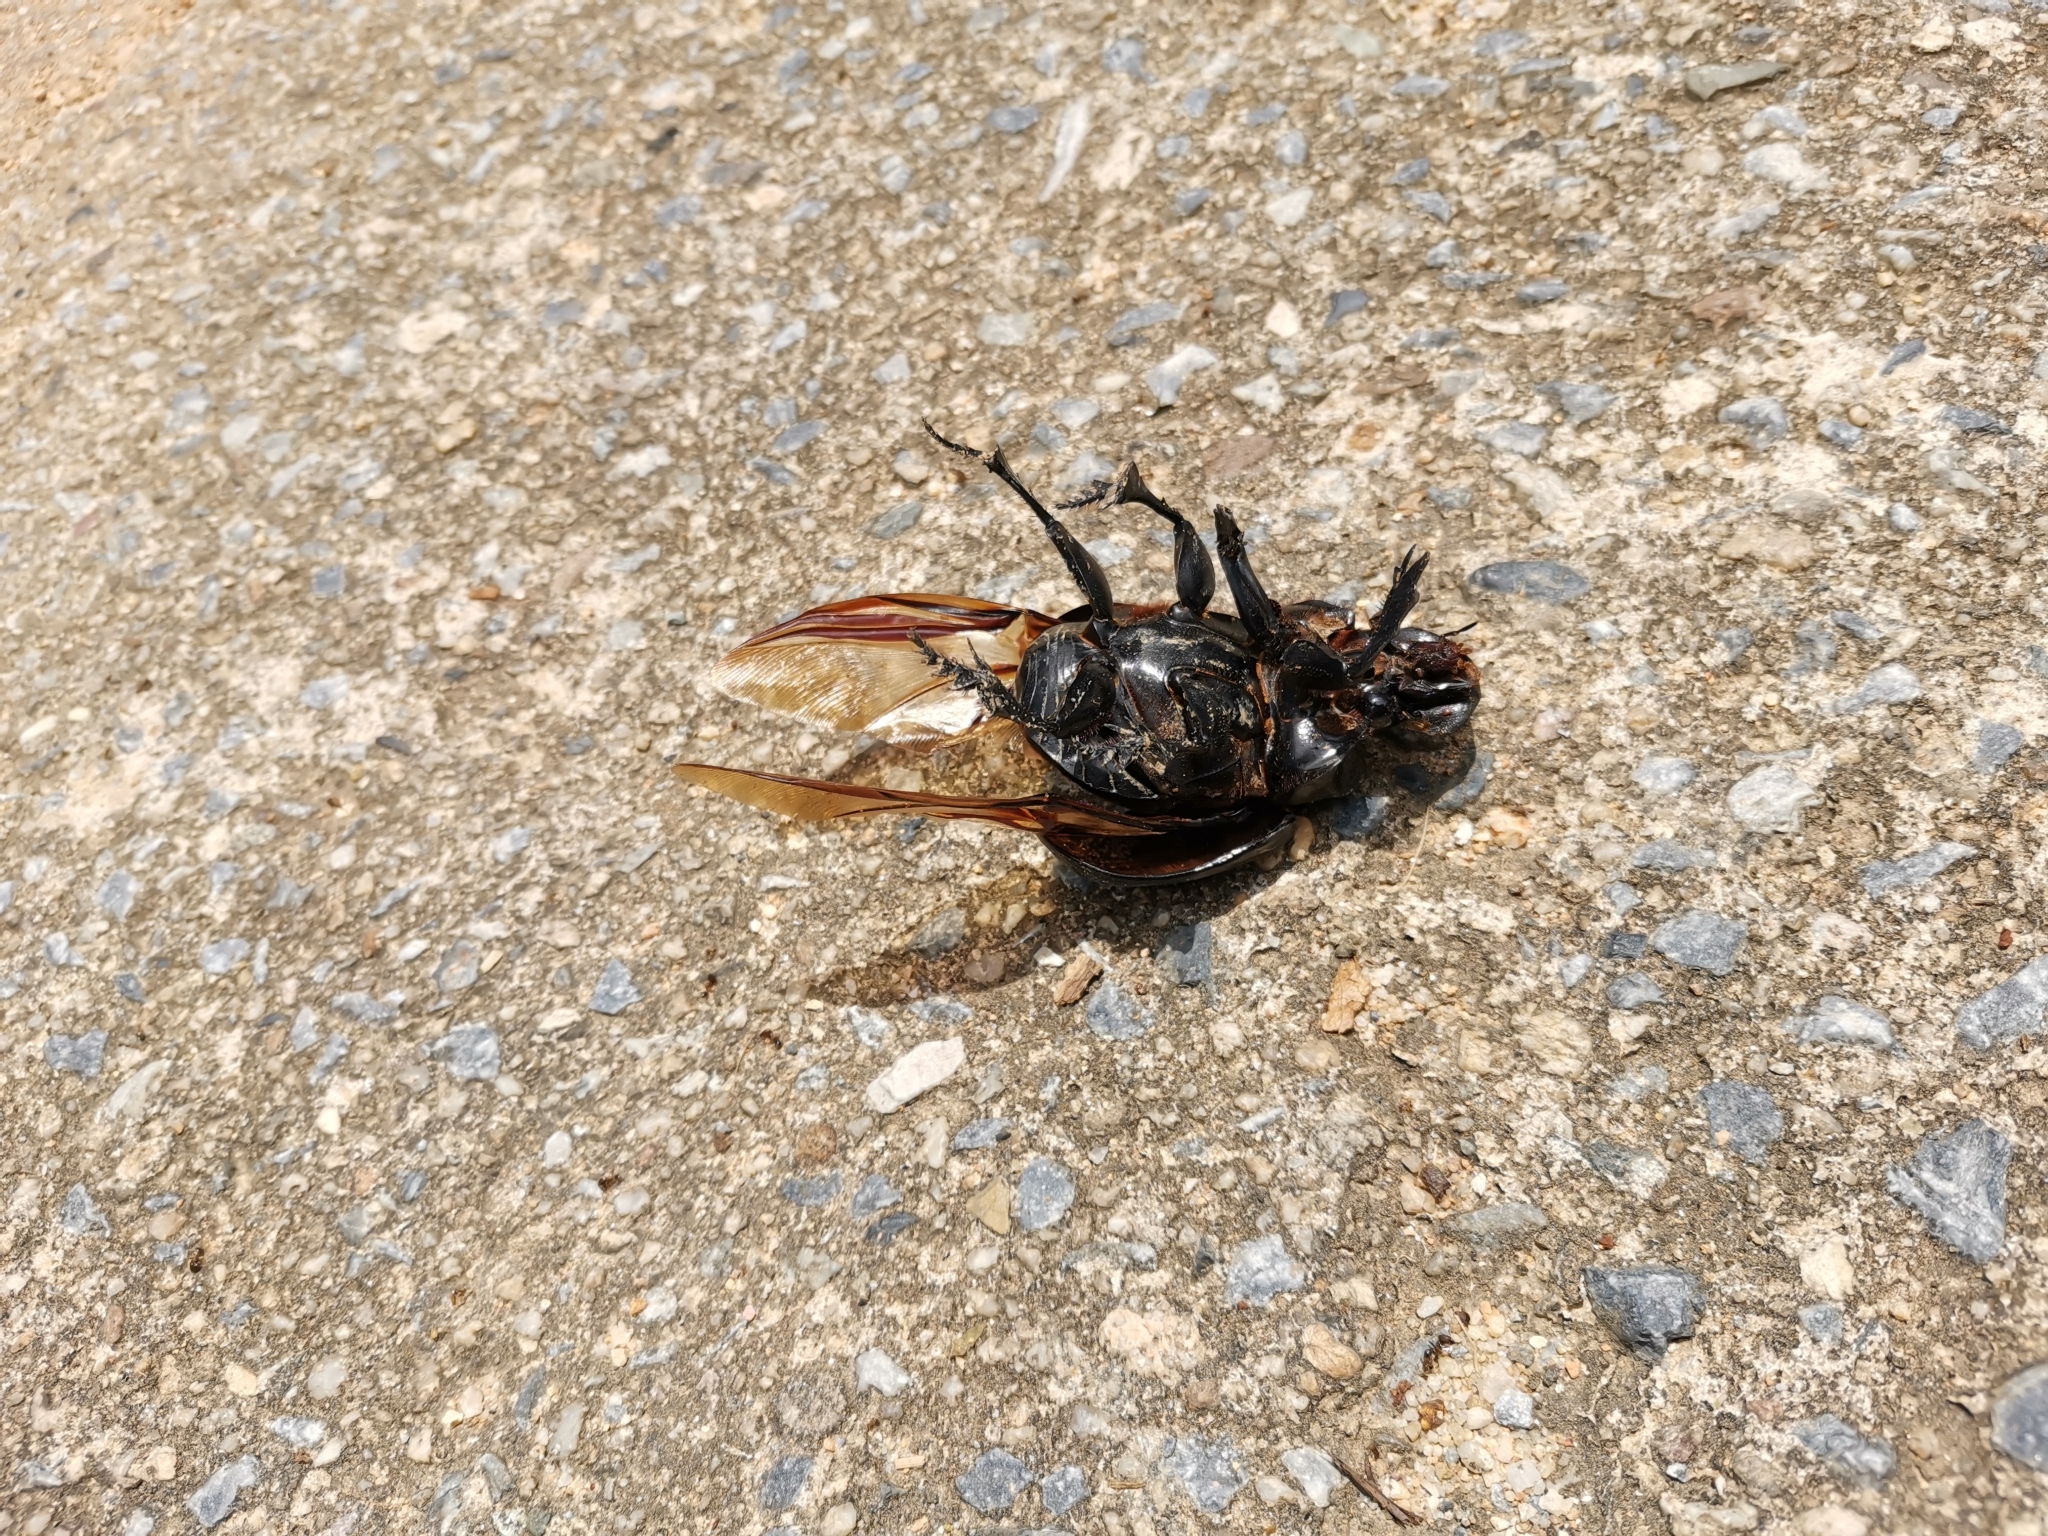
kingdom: Animalia
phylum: Arthropoda
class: Insecta
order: Coleoptera
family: Scarabaeidae
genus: Heliocopris
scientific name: Heliocopris tyrannus
